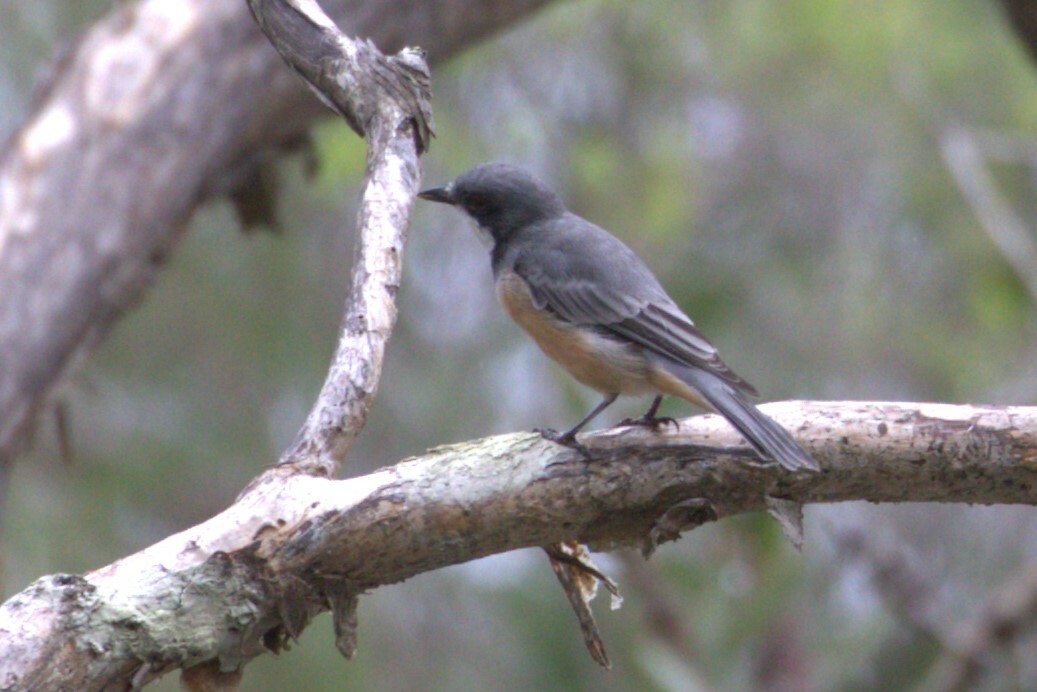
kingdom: Animalia
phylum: Chordata
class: Aves
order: Passeriformes
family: Pachycephalidae
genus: Pachycephala
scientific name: Pachycephala rufiventris
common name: Rufous whistler
